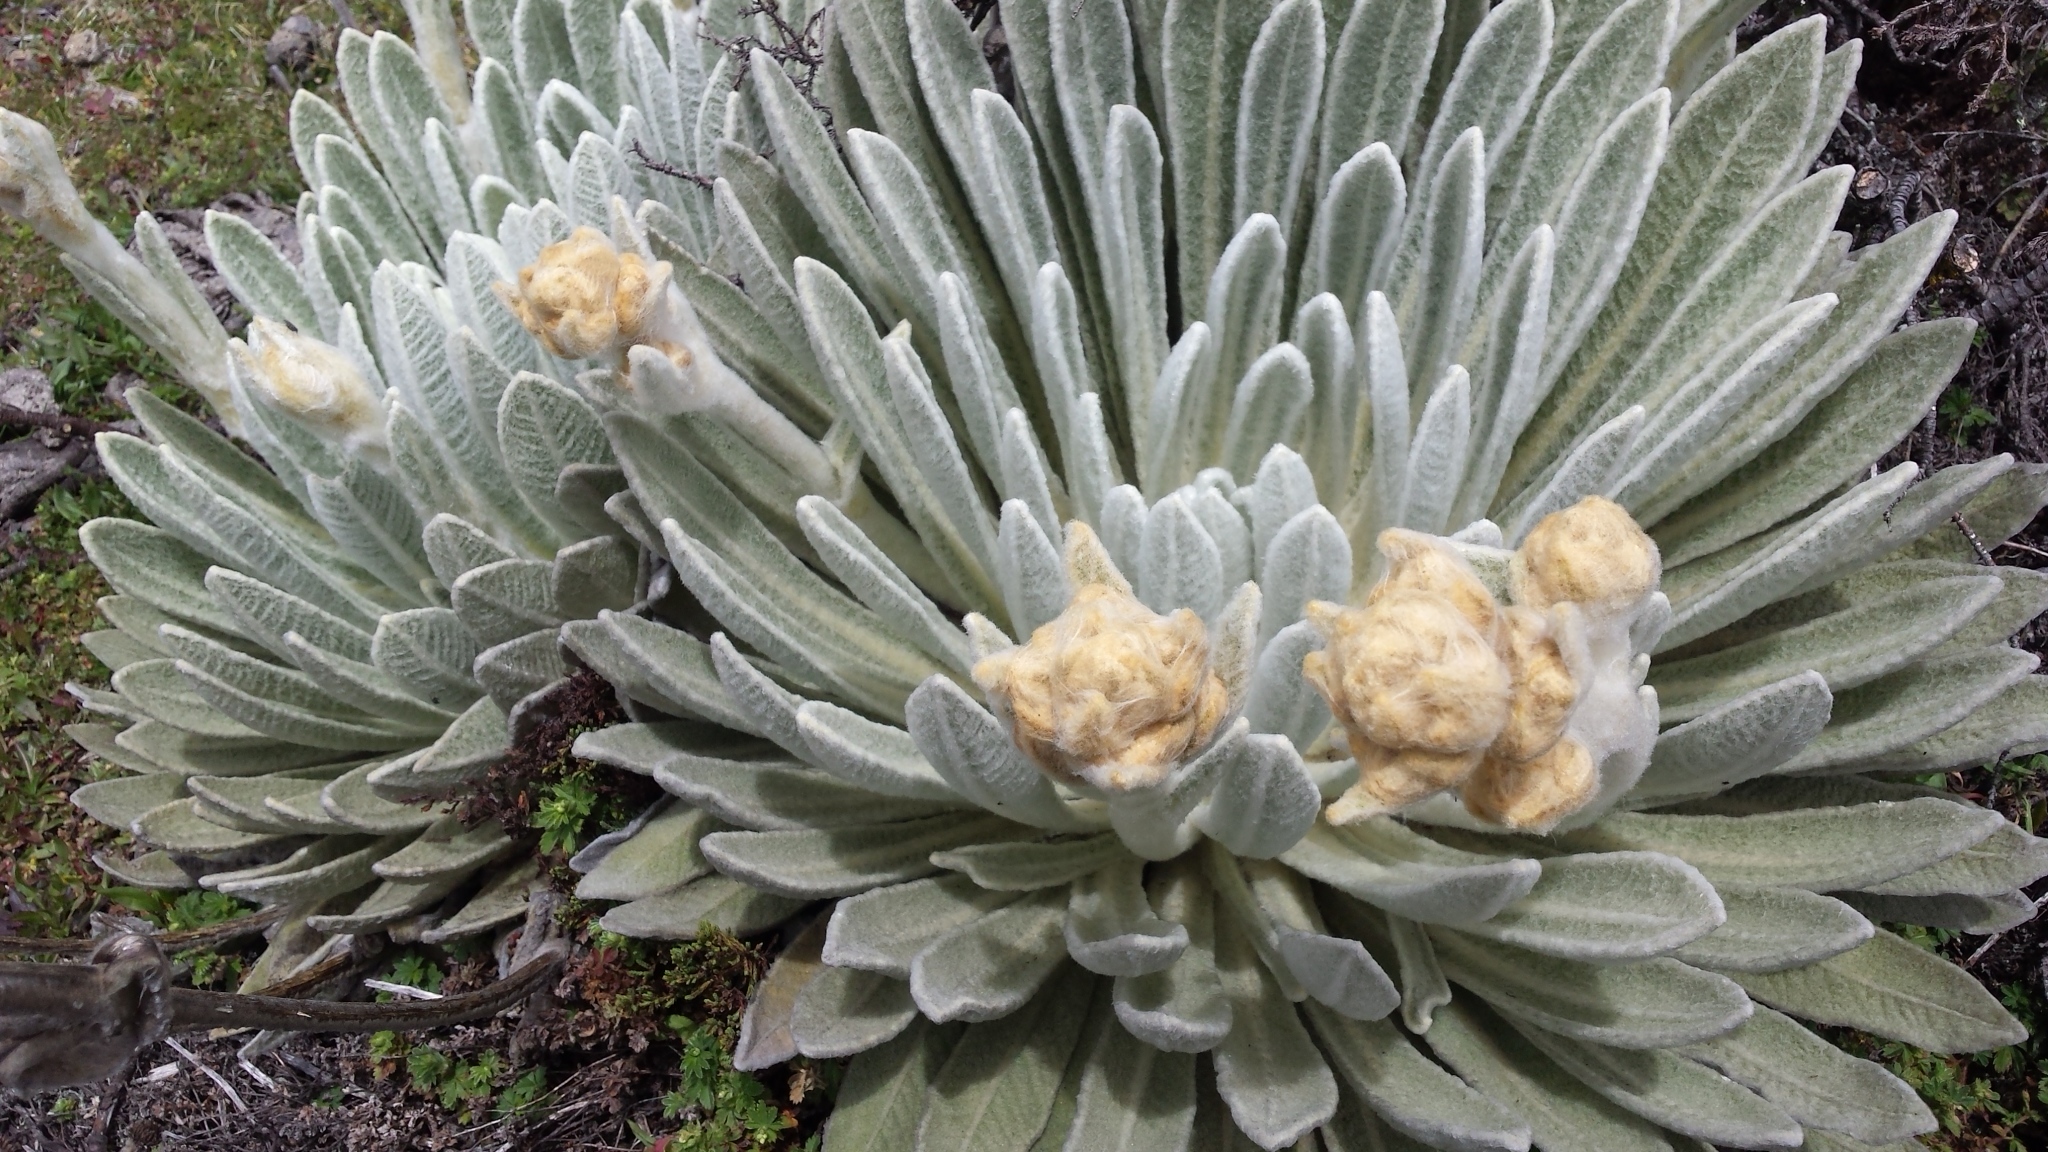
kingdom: Plantae
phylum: Tracheophyta
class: Magnoliopsida
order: Asterales
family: Asteraceae
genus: Espeletia
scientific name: Espeletia schultzii
